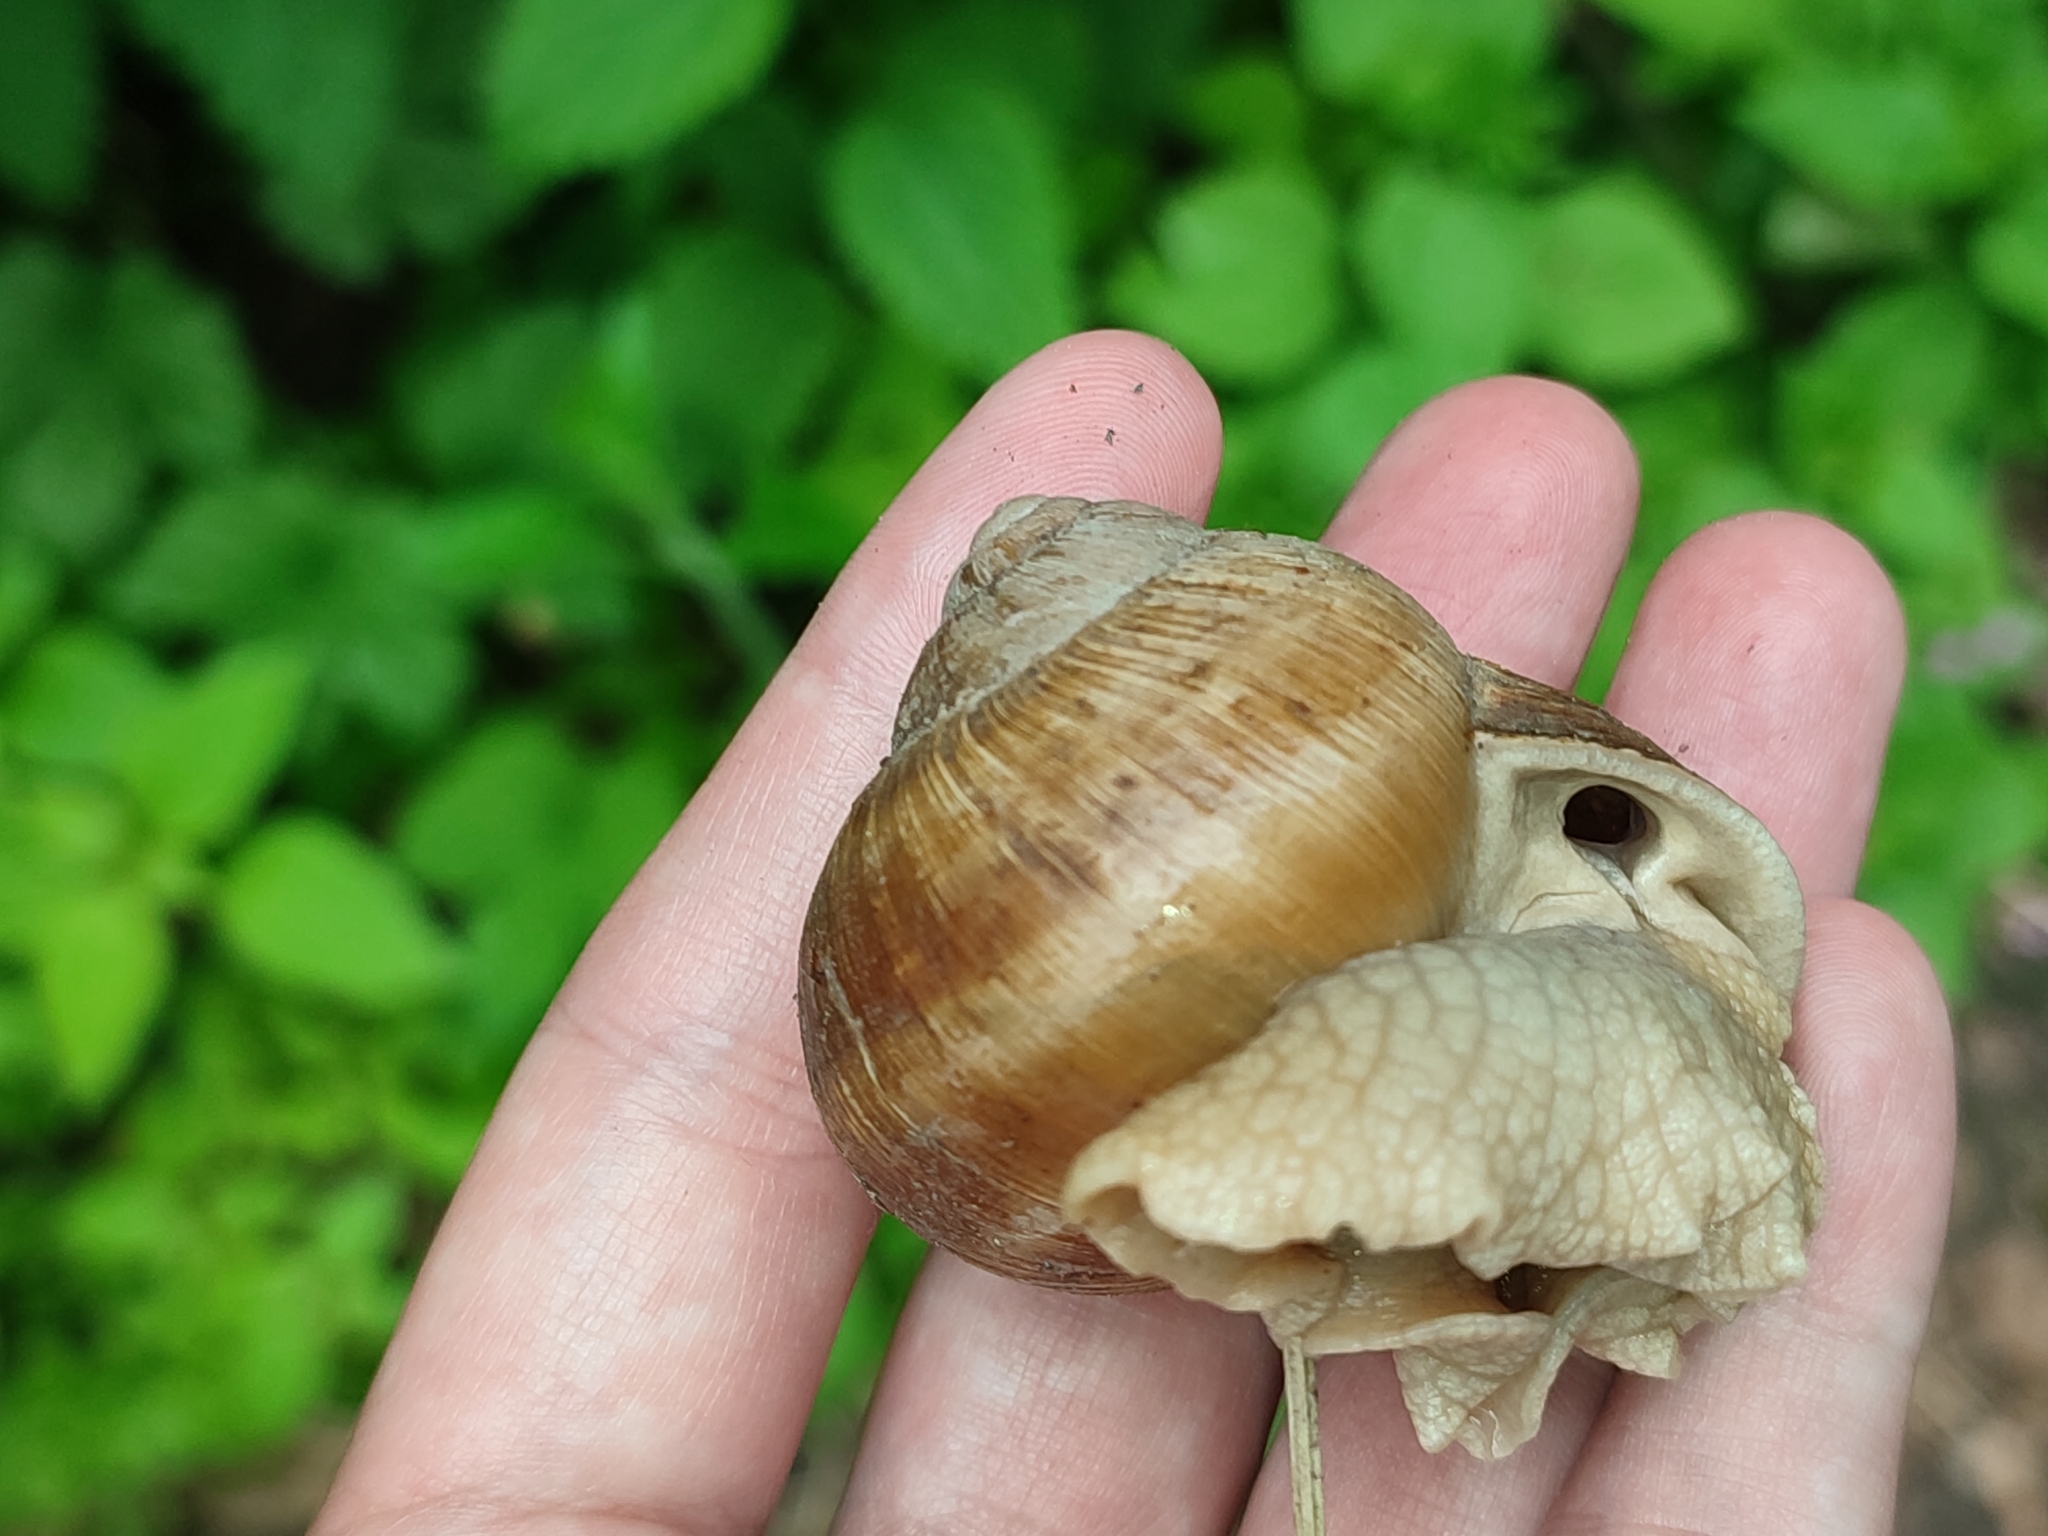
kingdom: Animalia
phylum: Mollusca
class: Gastropoda
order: Stylommatophora
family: Helicidae
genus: Helix
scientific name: Helix pomatia
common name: Roman snail
